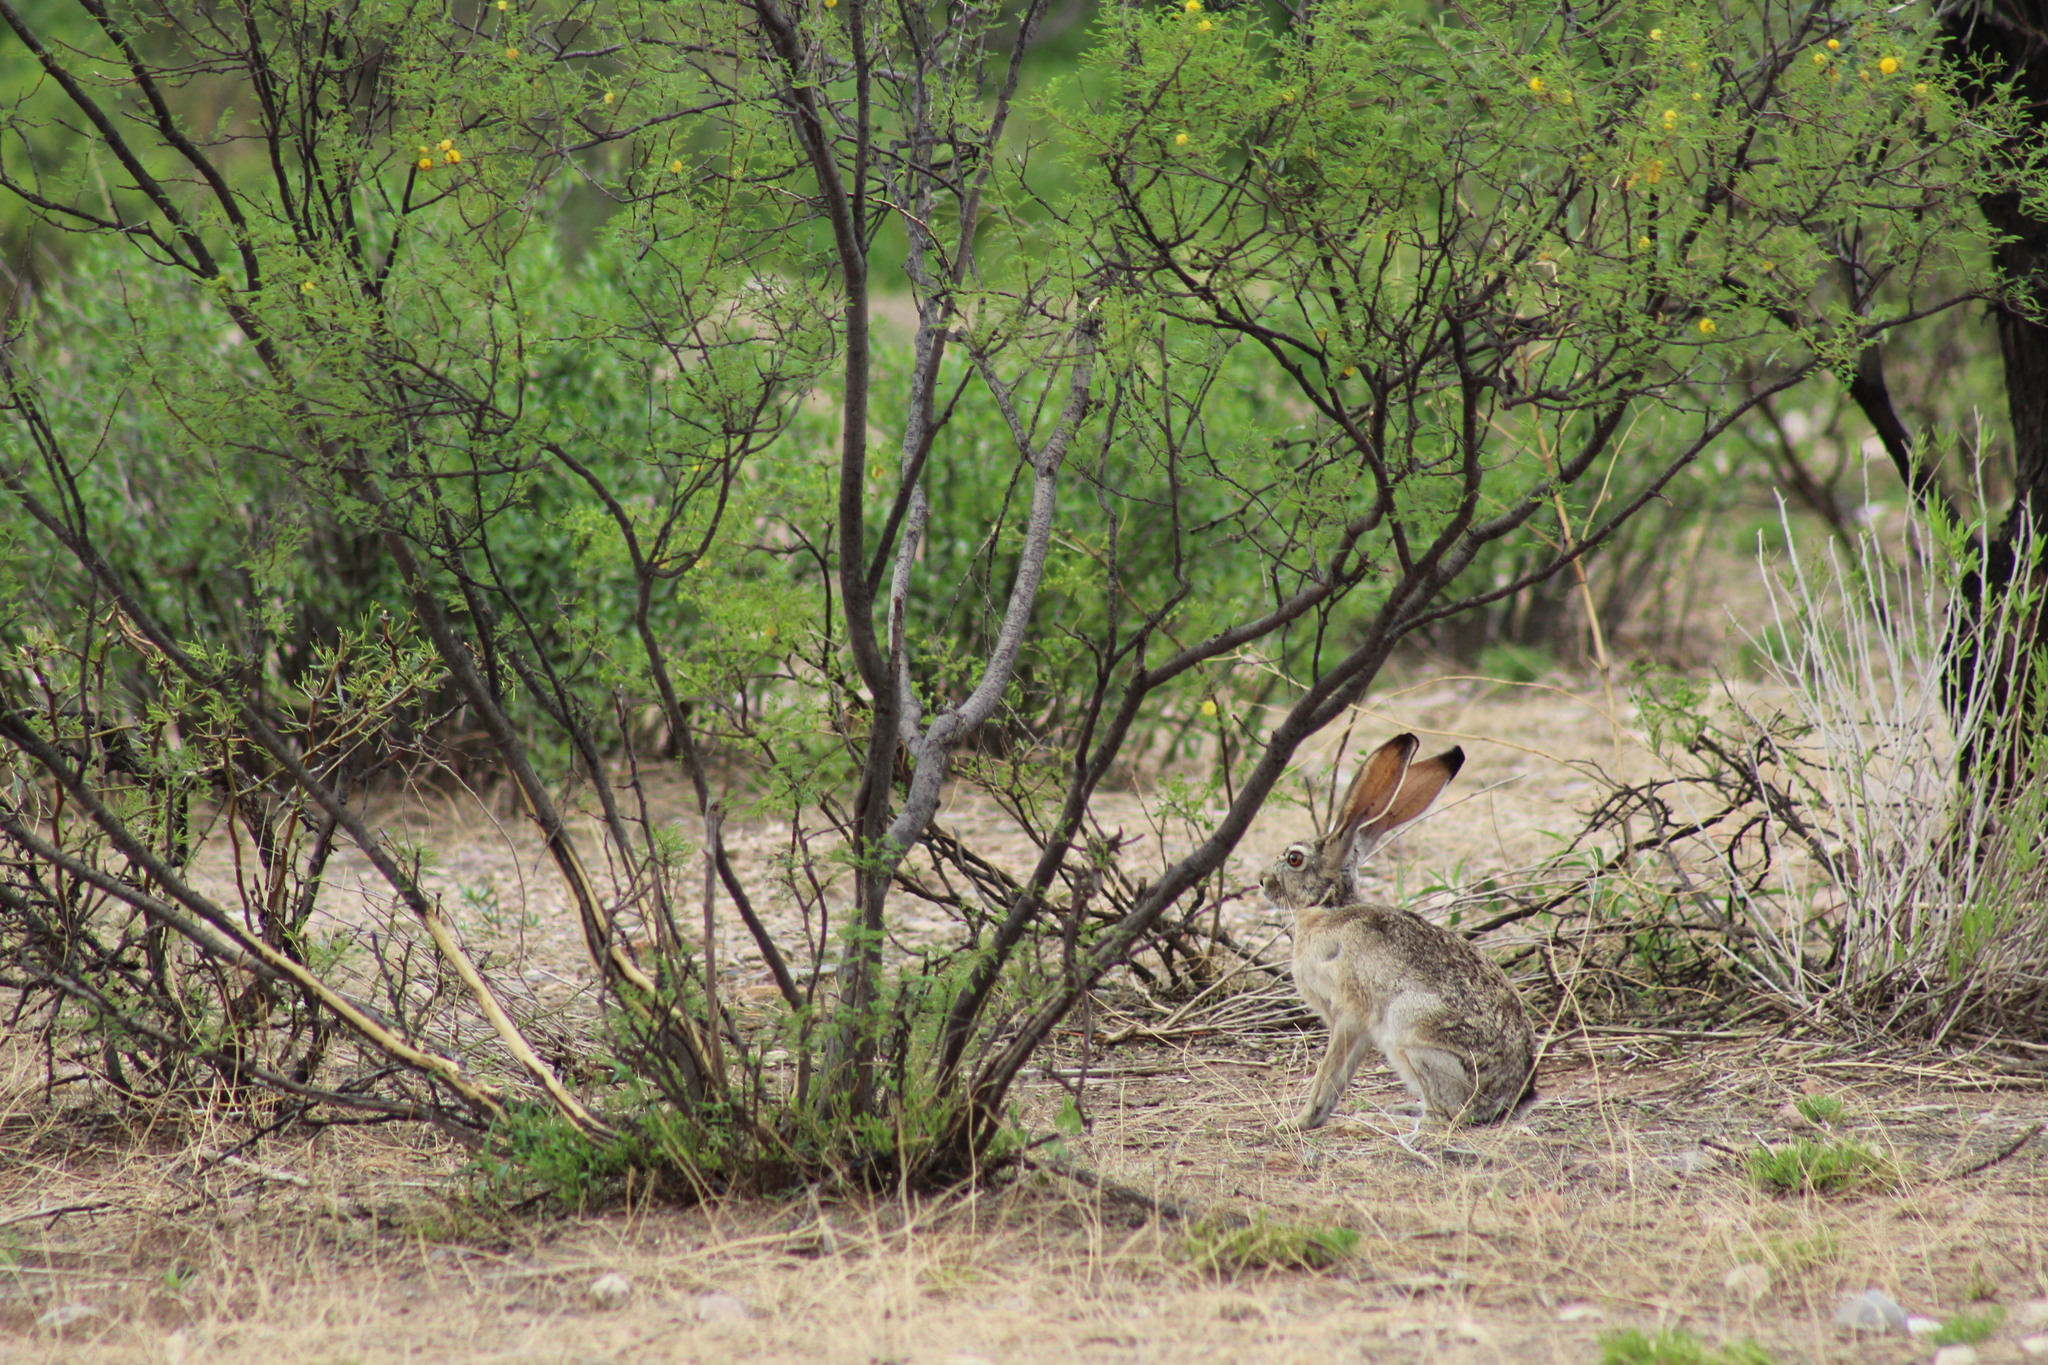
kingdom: Animalia
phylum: Chordata
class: Mammalia
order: Lagomorpha
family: Leporidae
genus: Lepus
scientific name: Lepus californicus
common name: Black-tailed jackrabbit
